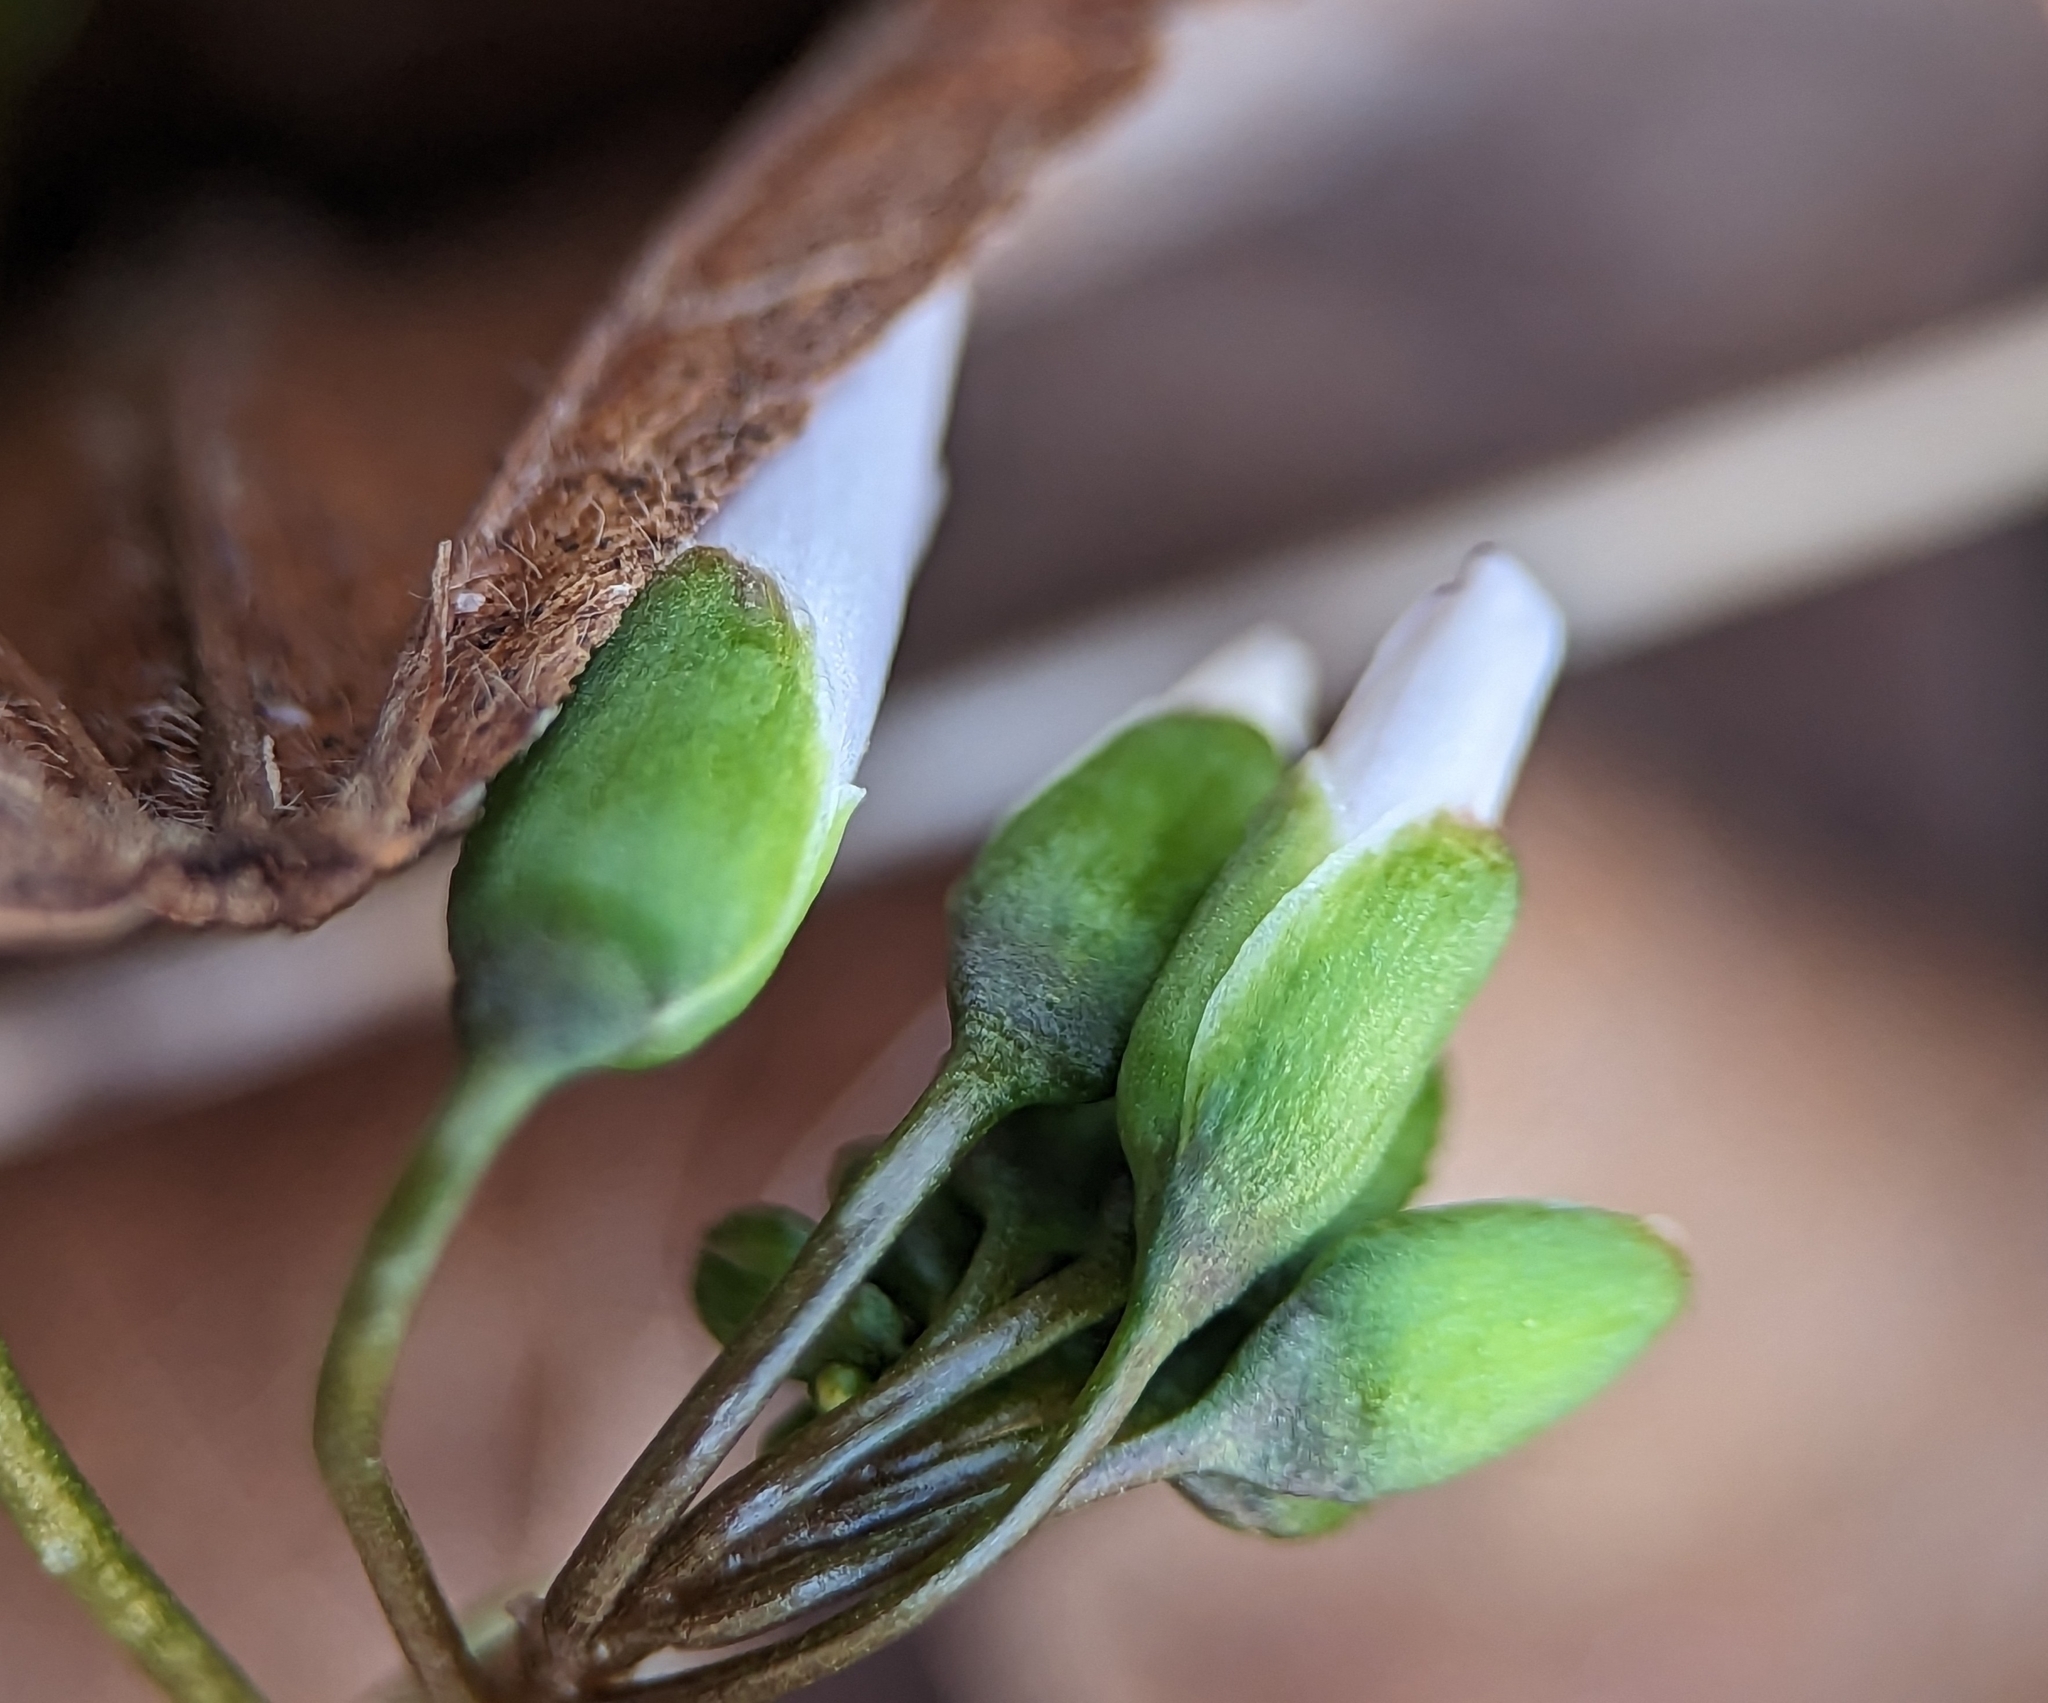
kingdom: Plantae
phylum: Tracheophyta
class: Magnoliopsida
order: Caryophyllales
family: Montiaceae
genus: Claytonia
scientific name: Claytonia virginica
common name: Virginia springbeauty
